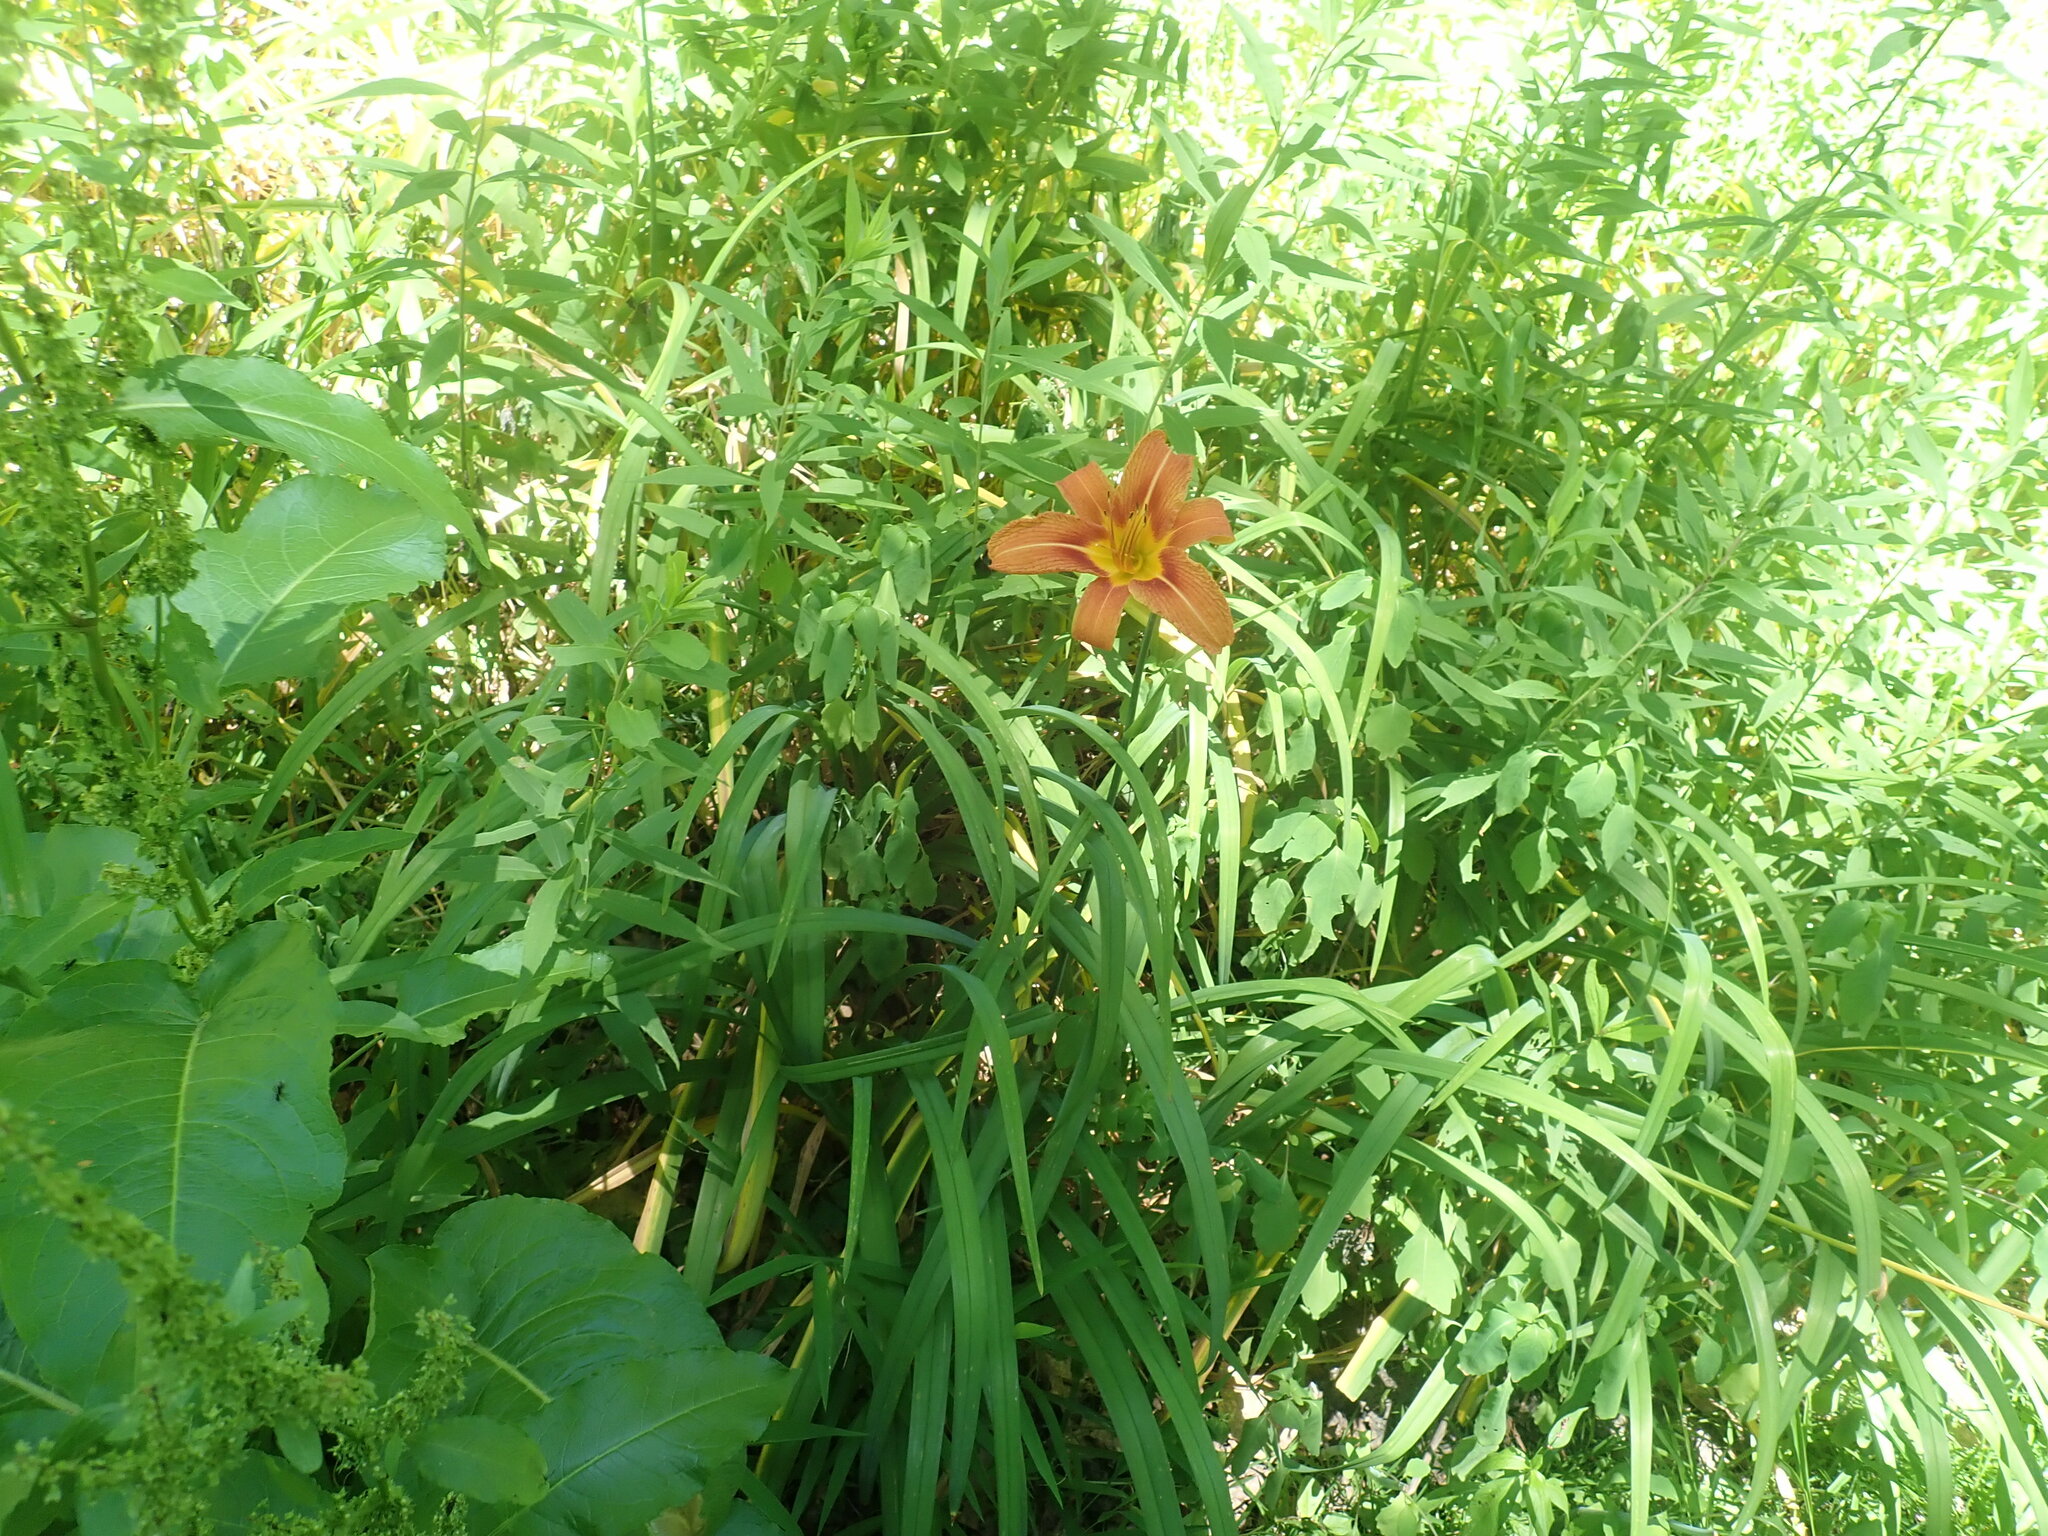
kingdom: Plantae
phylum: Tracheophyta
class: Liliopsida
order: Asparagales
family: Asphodelaceae
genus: Hemerocallis
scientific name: Hemerocallis fulva
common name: Orange day-lily
